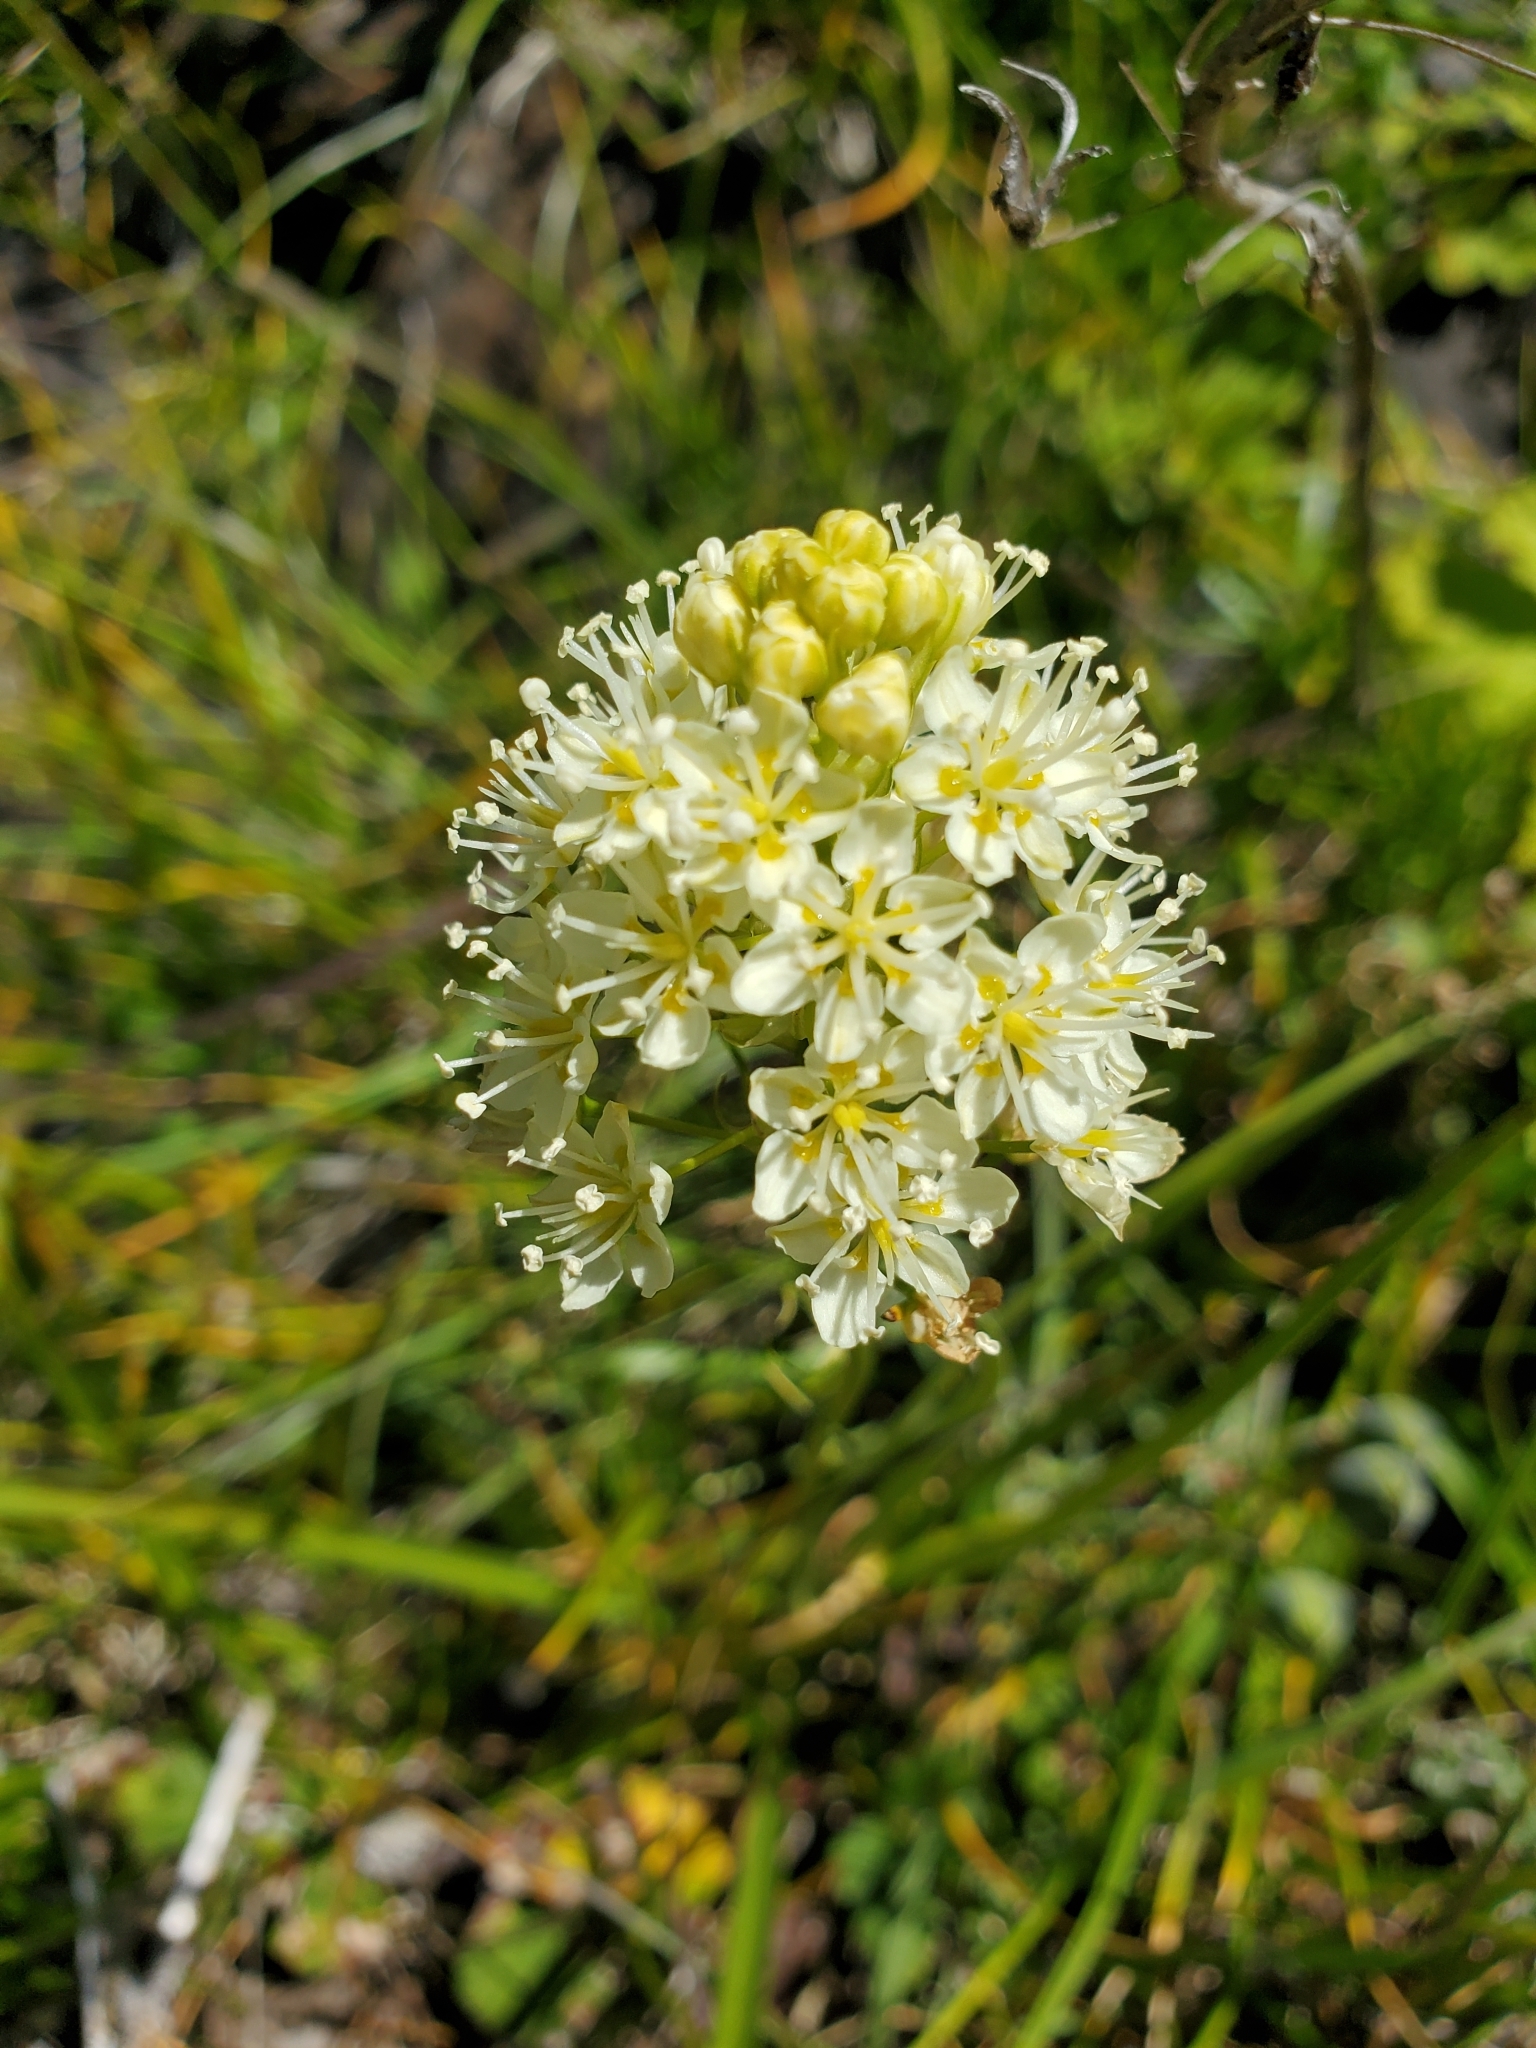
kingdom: Plantae
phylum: Tracheophyta
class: Liliopsida
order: Liliales
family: Melanthiaceae
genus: Toxicoscordion
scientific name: Toxicoscordion venenosum
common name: Meadow death camas
